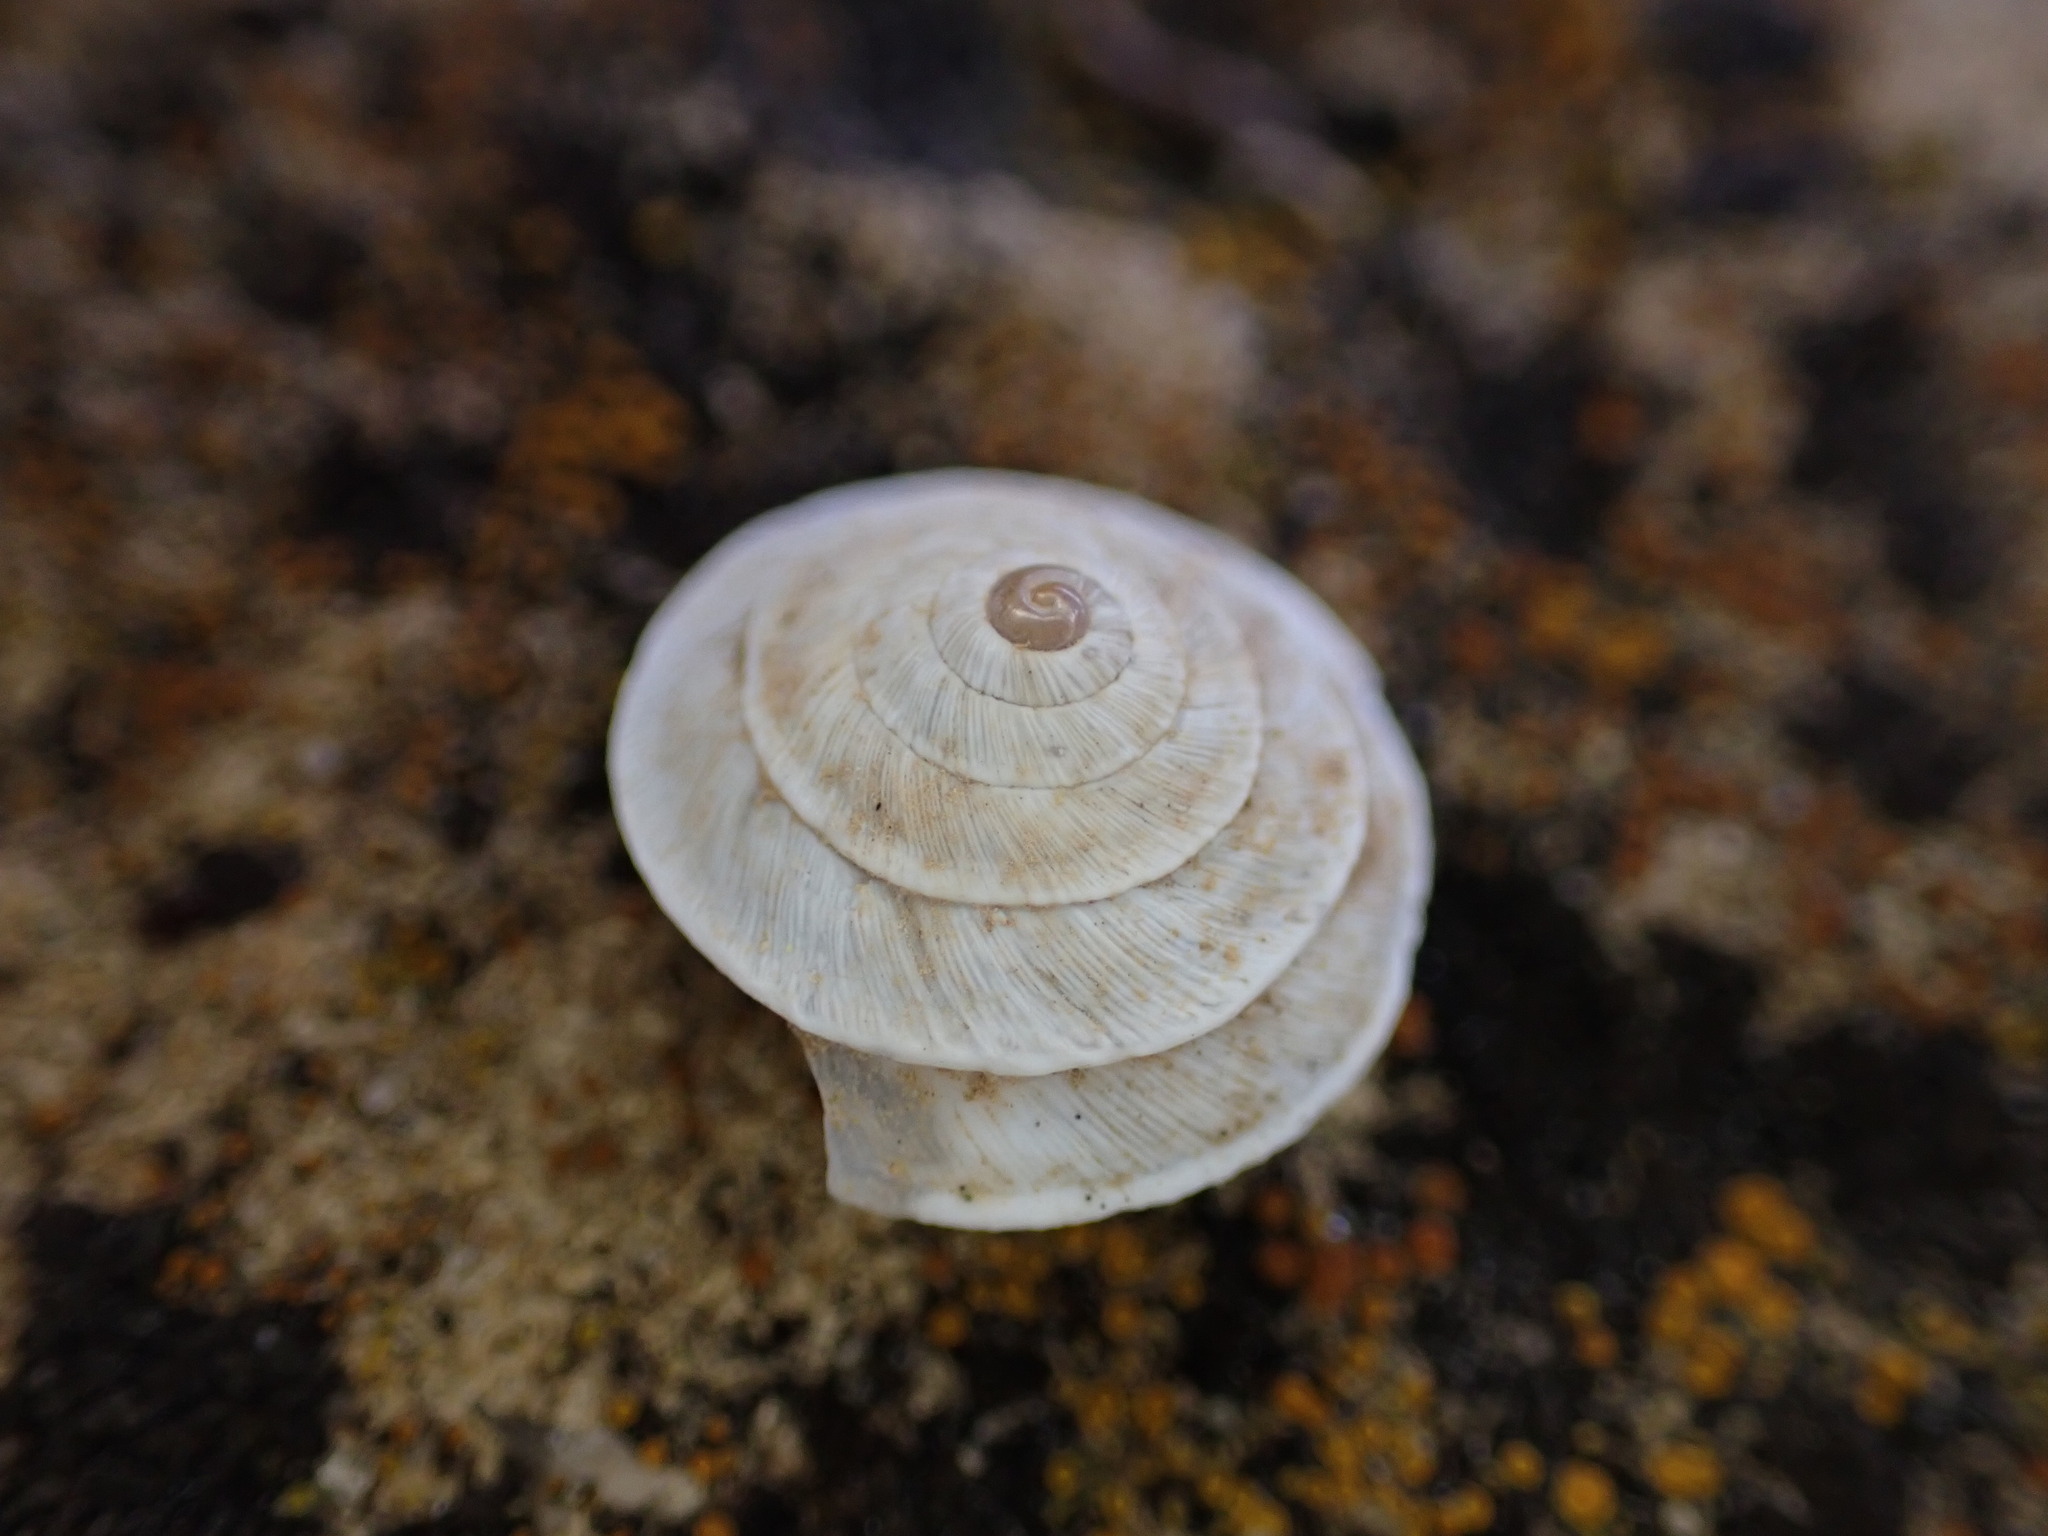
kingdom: Animalia
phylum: Mollusca
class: Gastropoda
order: Stylommatophora
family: Geomitridae
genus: Trochoidea
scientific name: Trochoidea elegans
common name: Elegant helicellid
